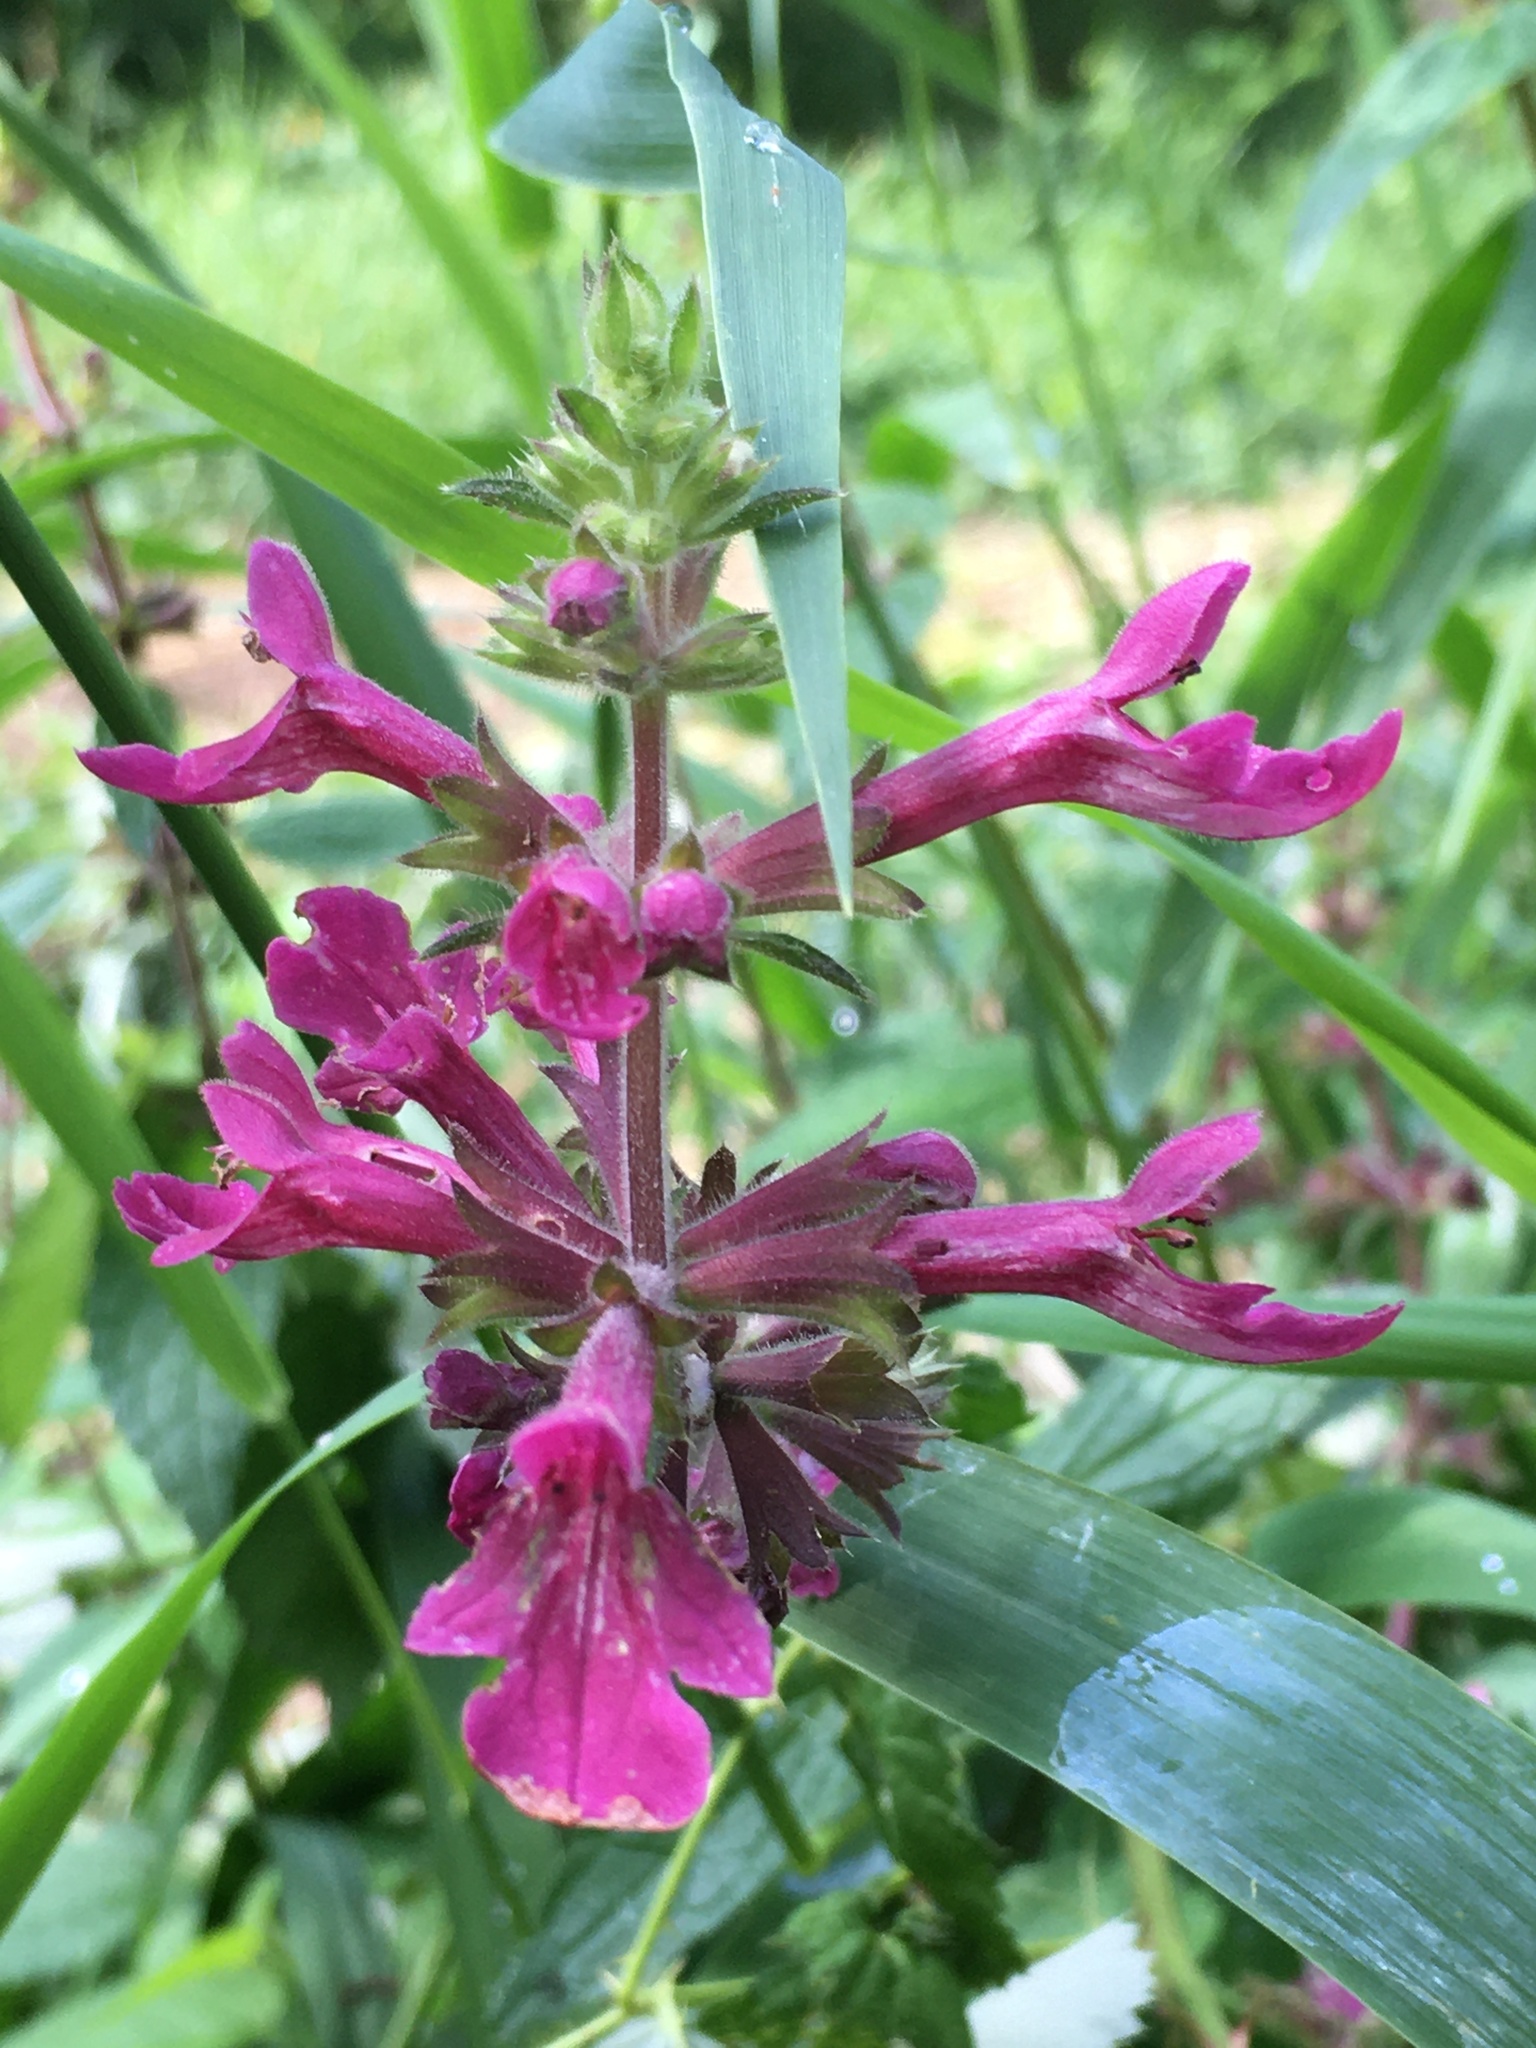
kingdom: Plantae
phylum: Tracheophyta
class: Magnoliopsida
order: Lamiales
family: Lamiaceae
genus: Stachys
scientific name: Stachys chamissonis
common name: Coastal hedge-nettle
